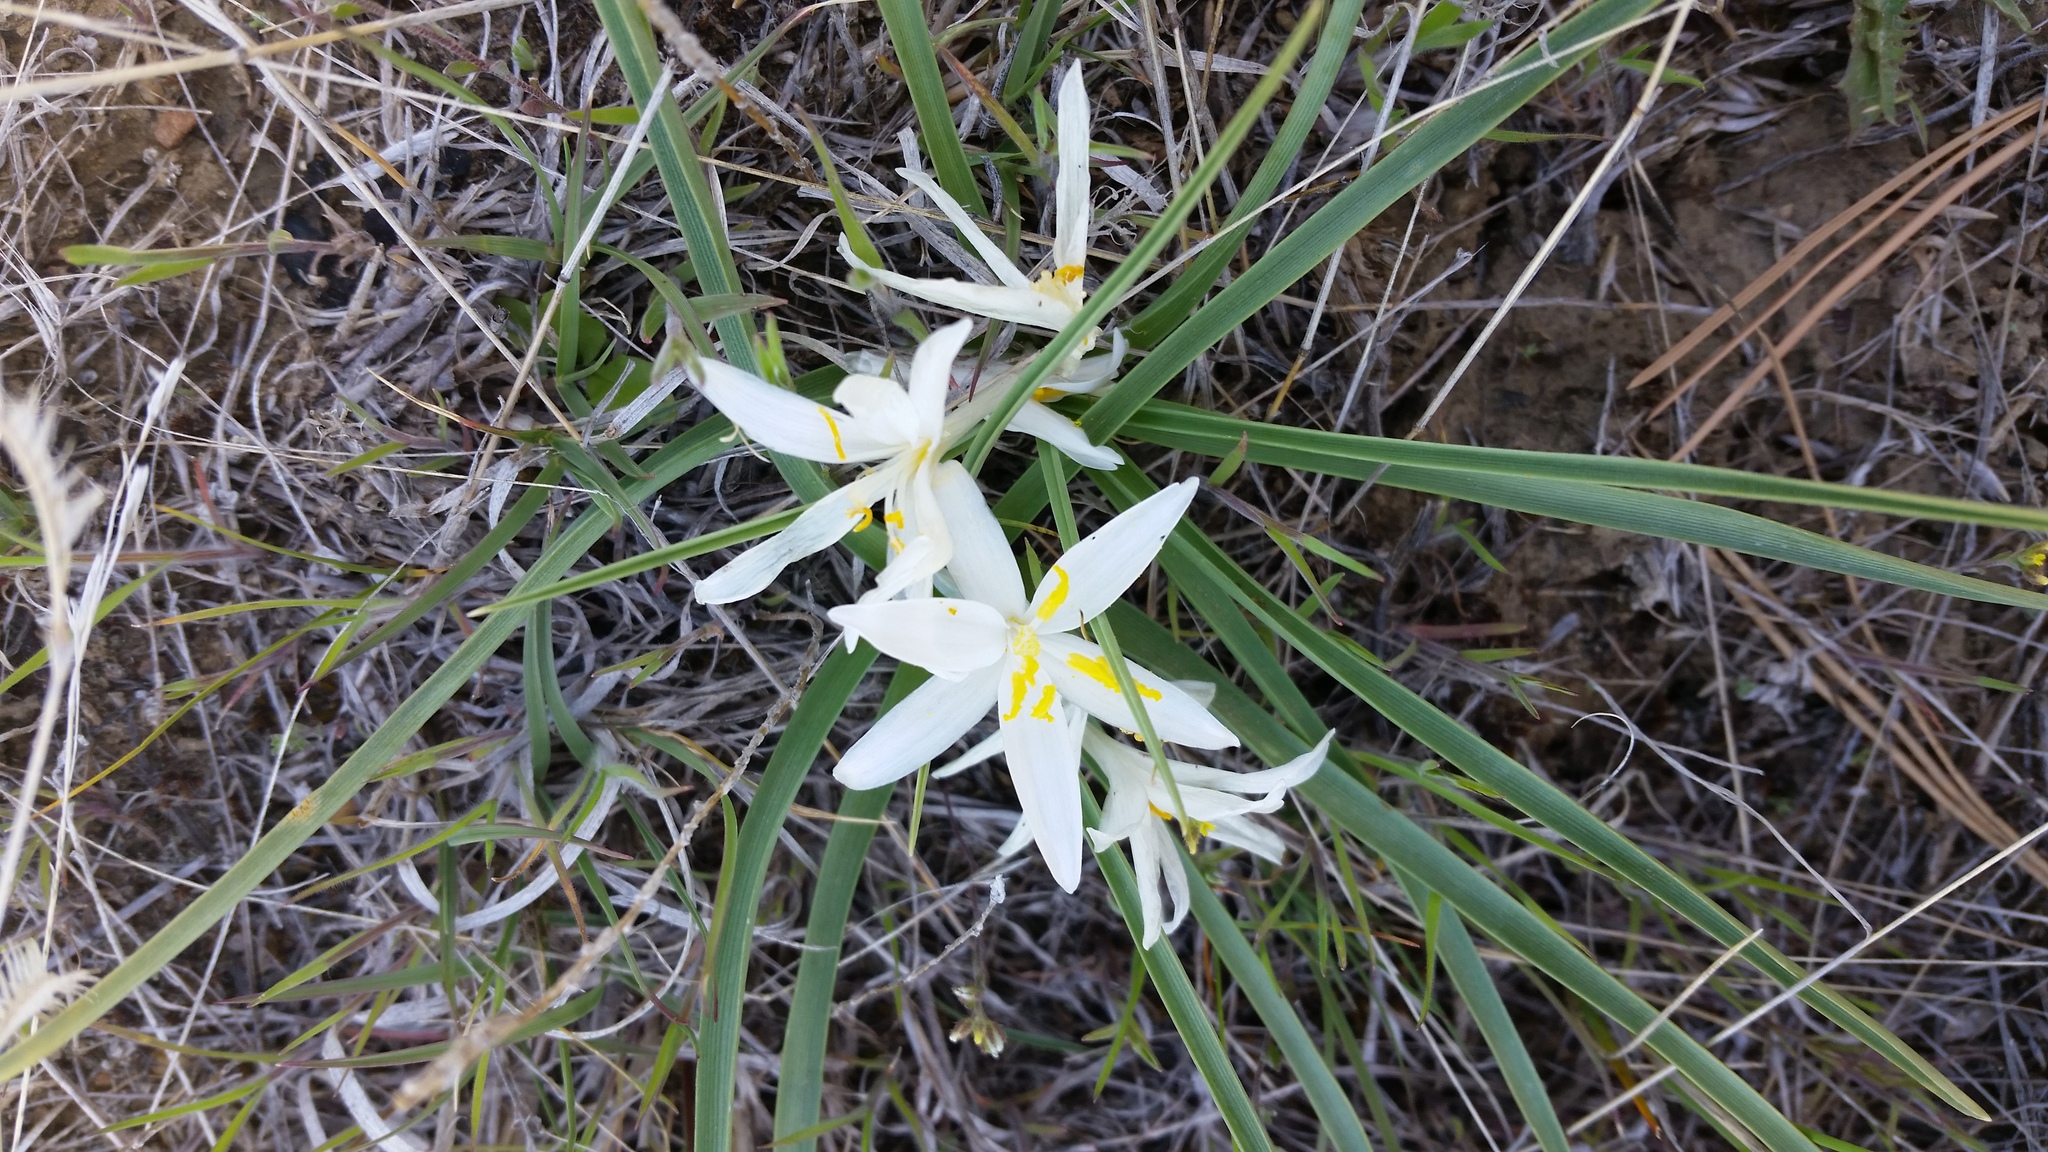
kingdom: Plantae
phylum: Tracheophyta
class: Liliopsida
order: Asparagales
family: Asparagaceae
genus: Leucocrinum
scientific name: Leucocrinum montanum
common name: Mountain-lily
